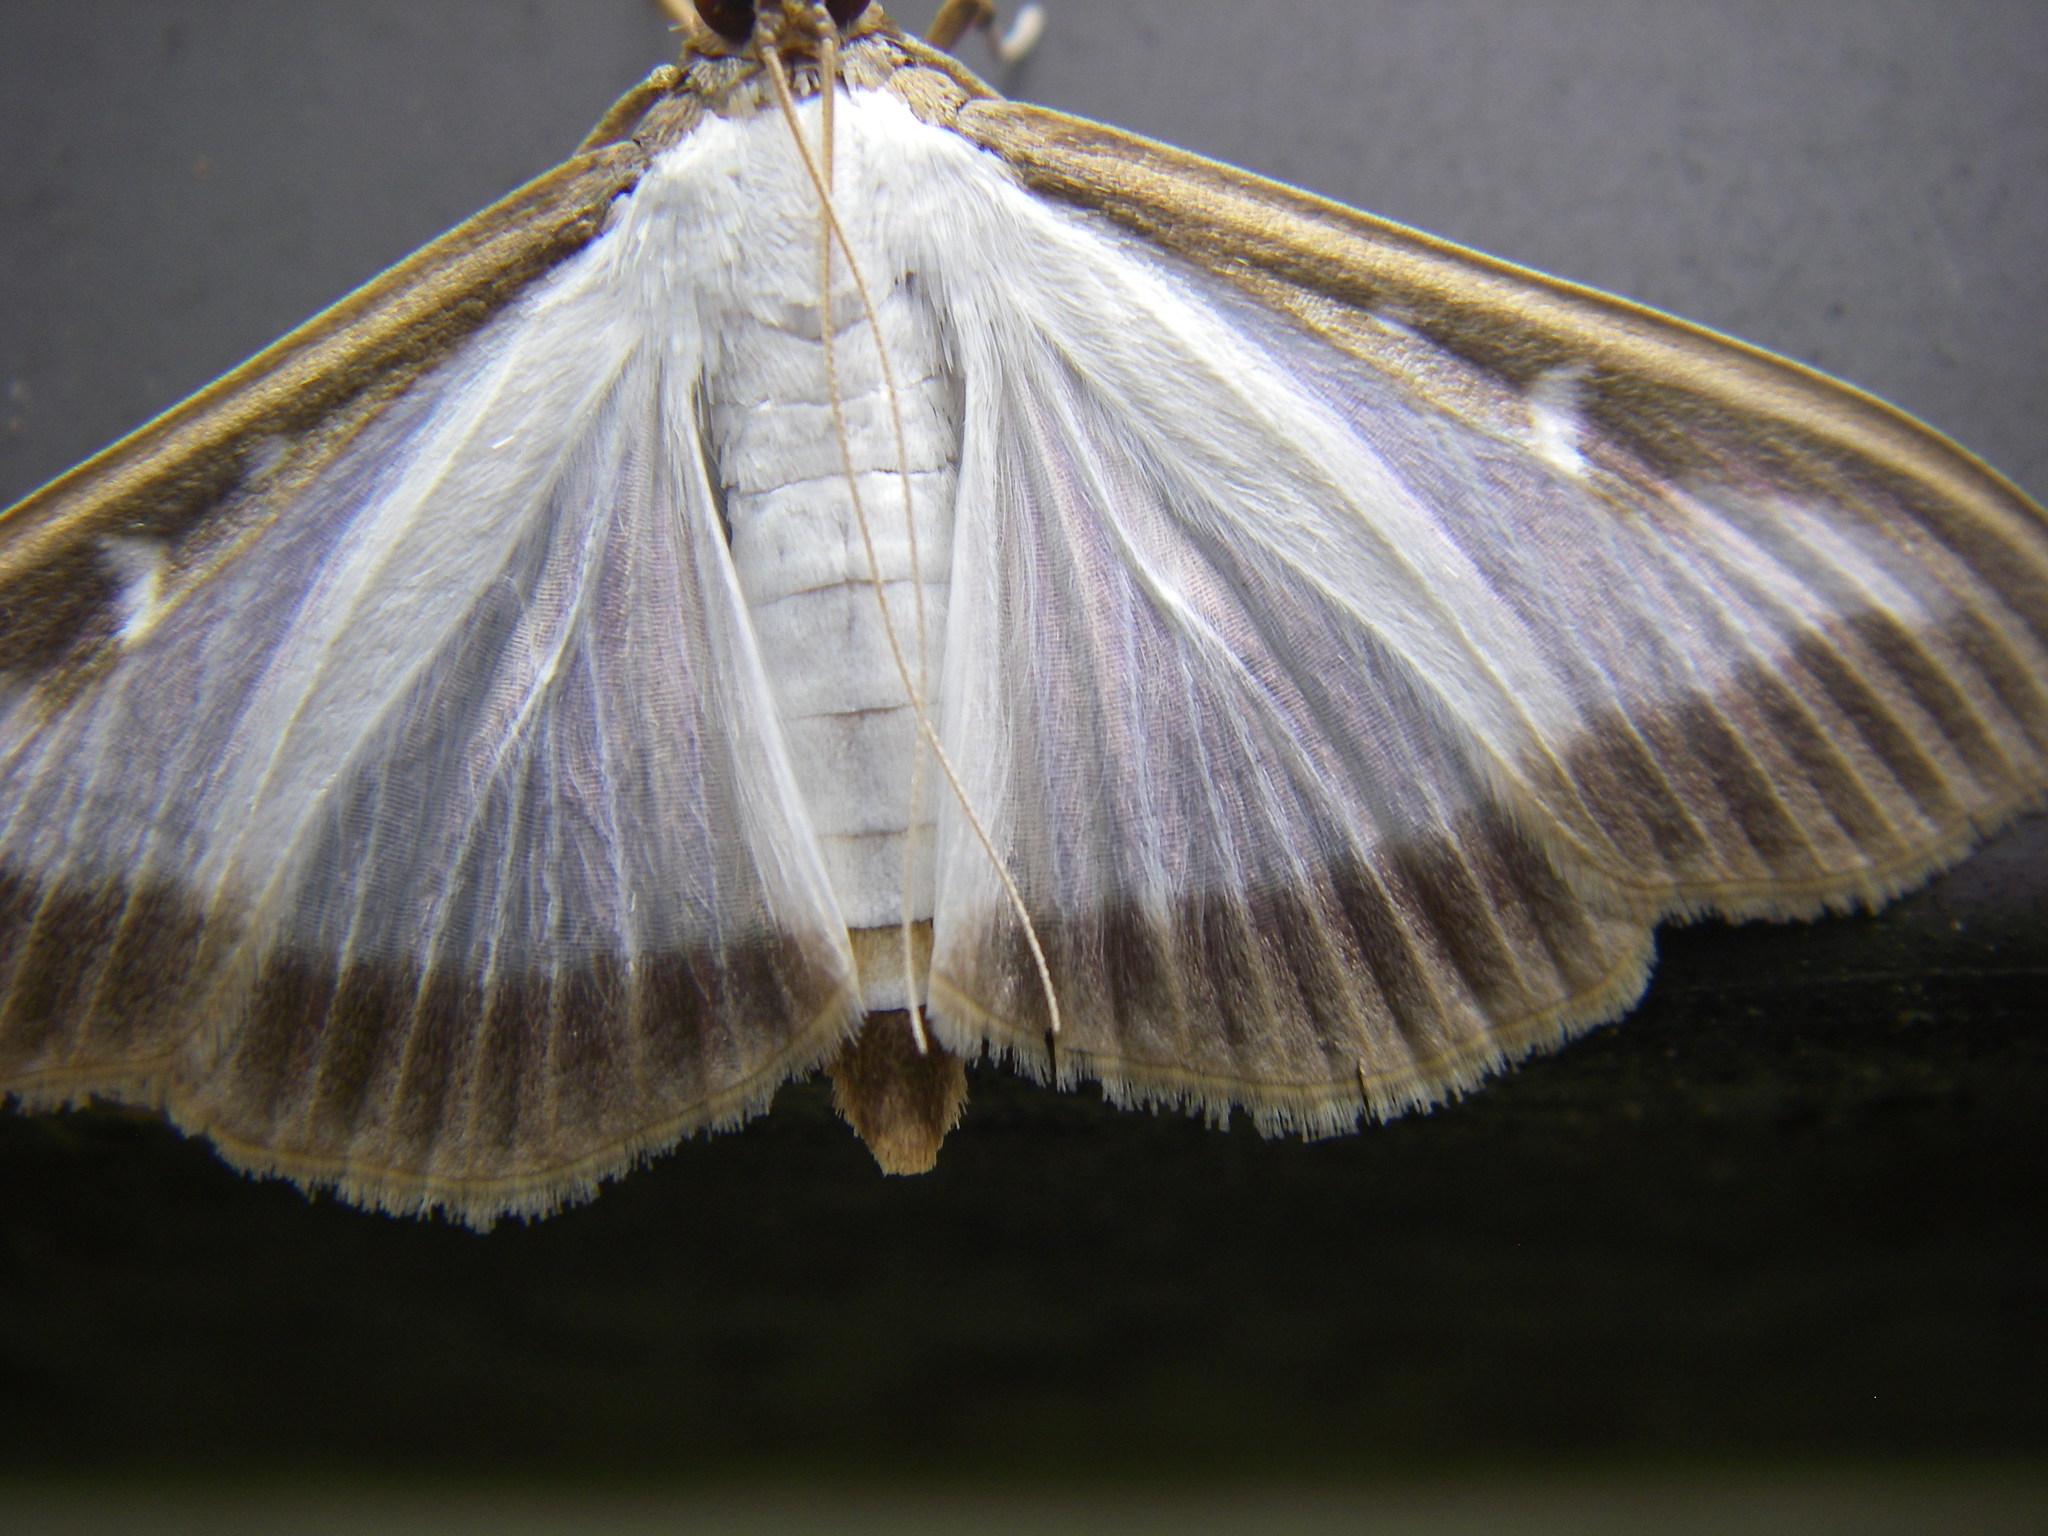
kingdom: Animalia
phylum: Arthropoda
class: Insecta
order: Lepidoptera
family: Crambidae
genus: Cydalima
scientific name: Cydalima perspectalis
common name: Box tree moth
